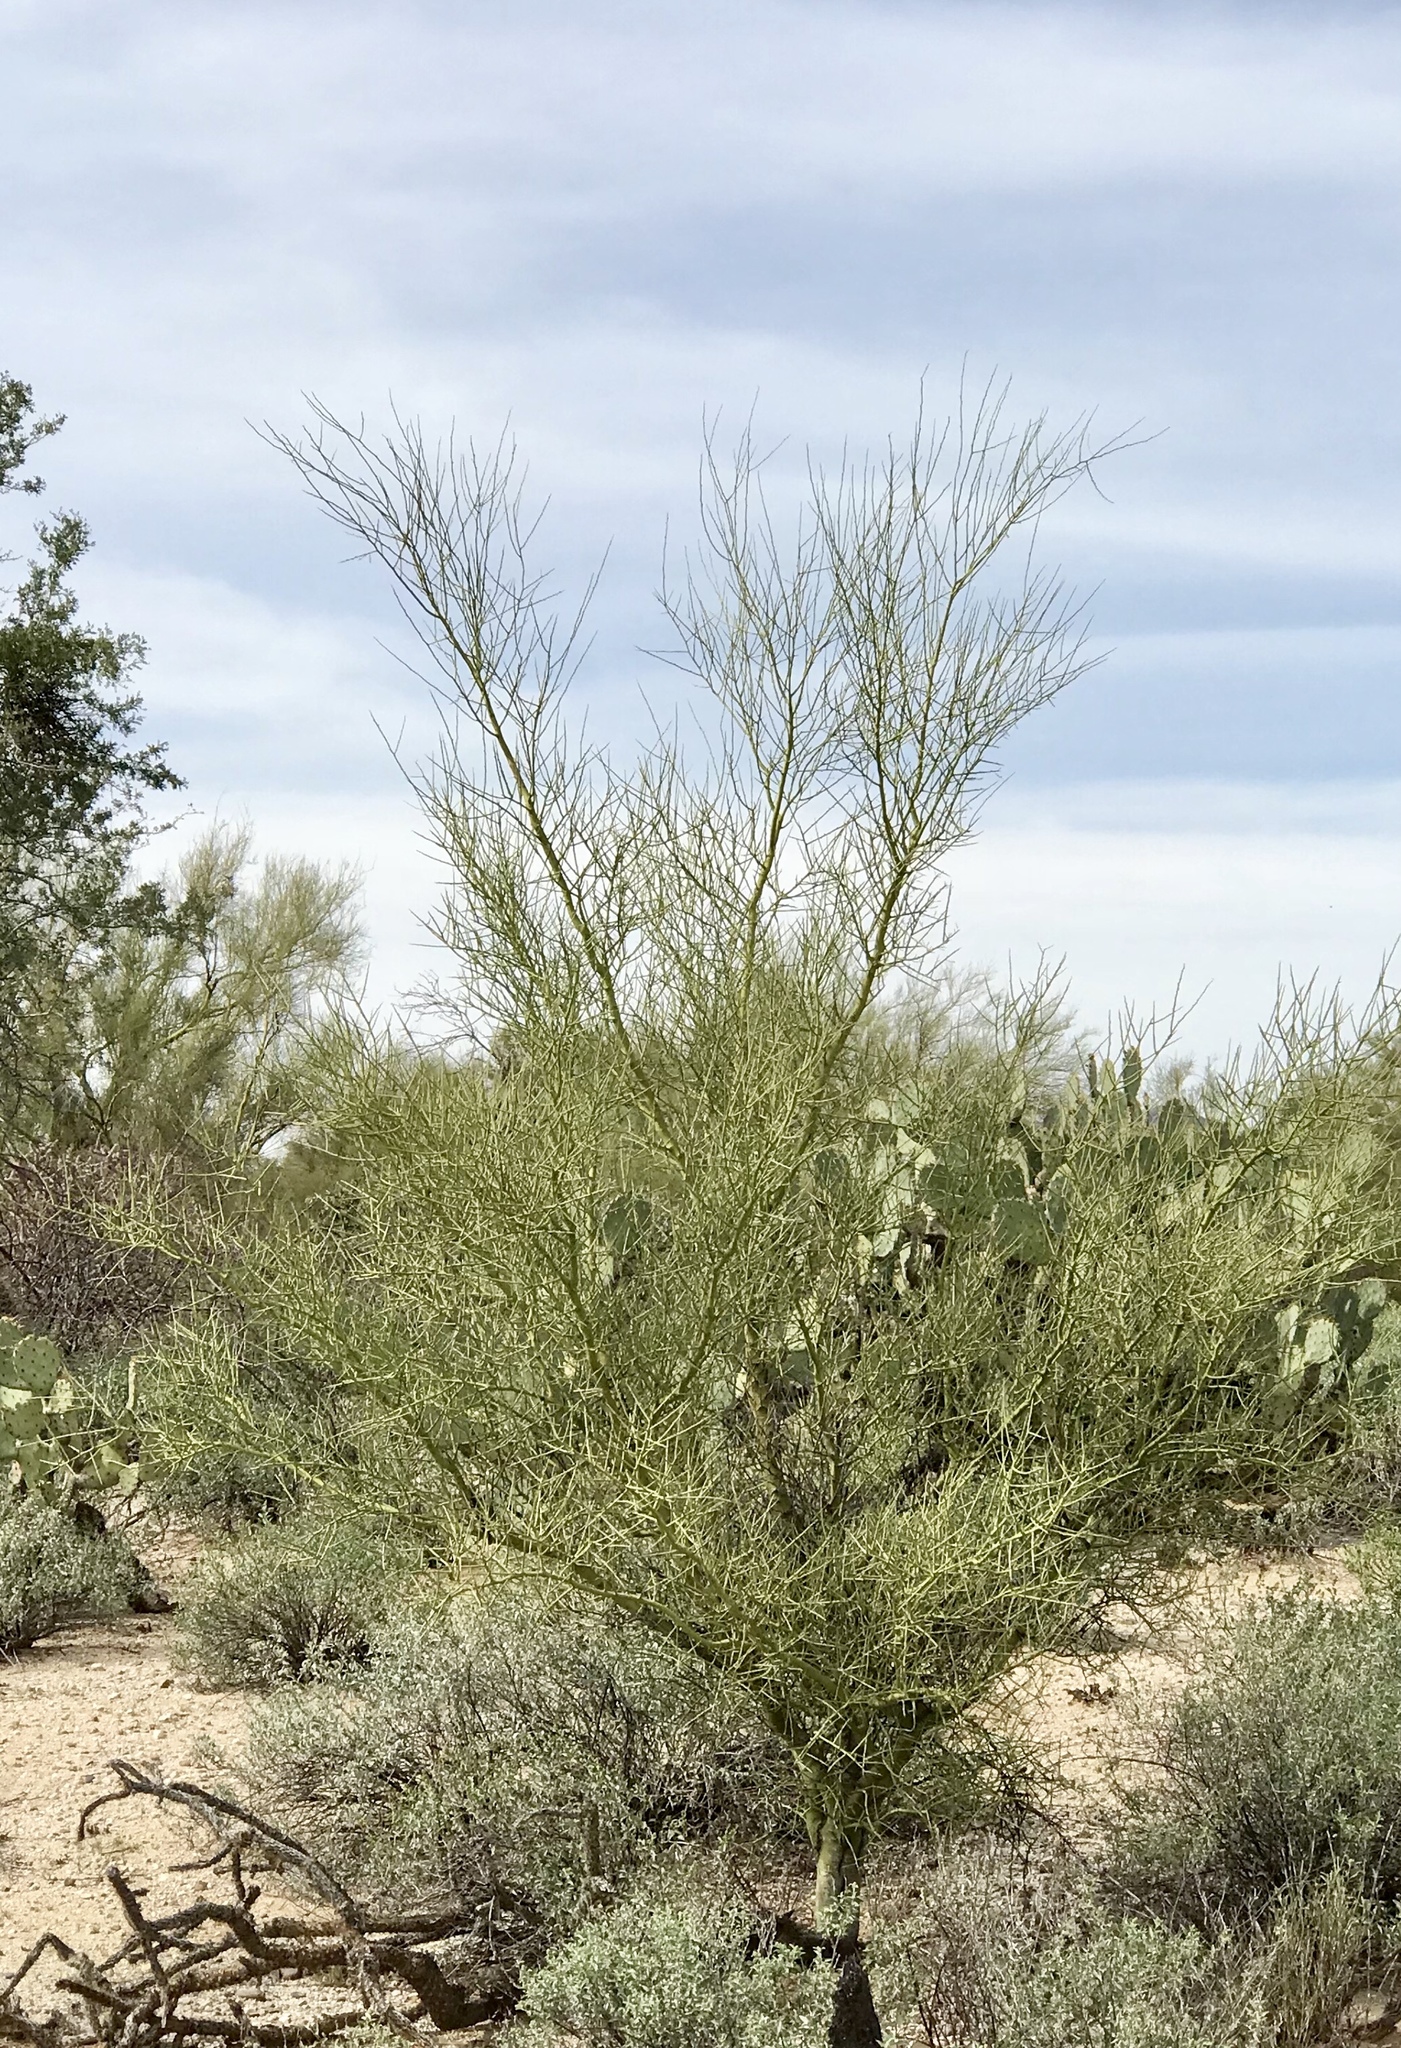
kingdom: Plantae
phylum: Tracheophyta
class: Magnoliopsida
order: Fabales
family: Fabaceae
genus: Parkinsonia
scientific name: Parkinsonia microphylla
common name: Yellow paloverde
